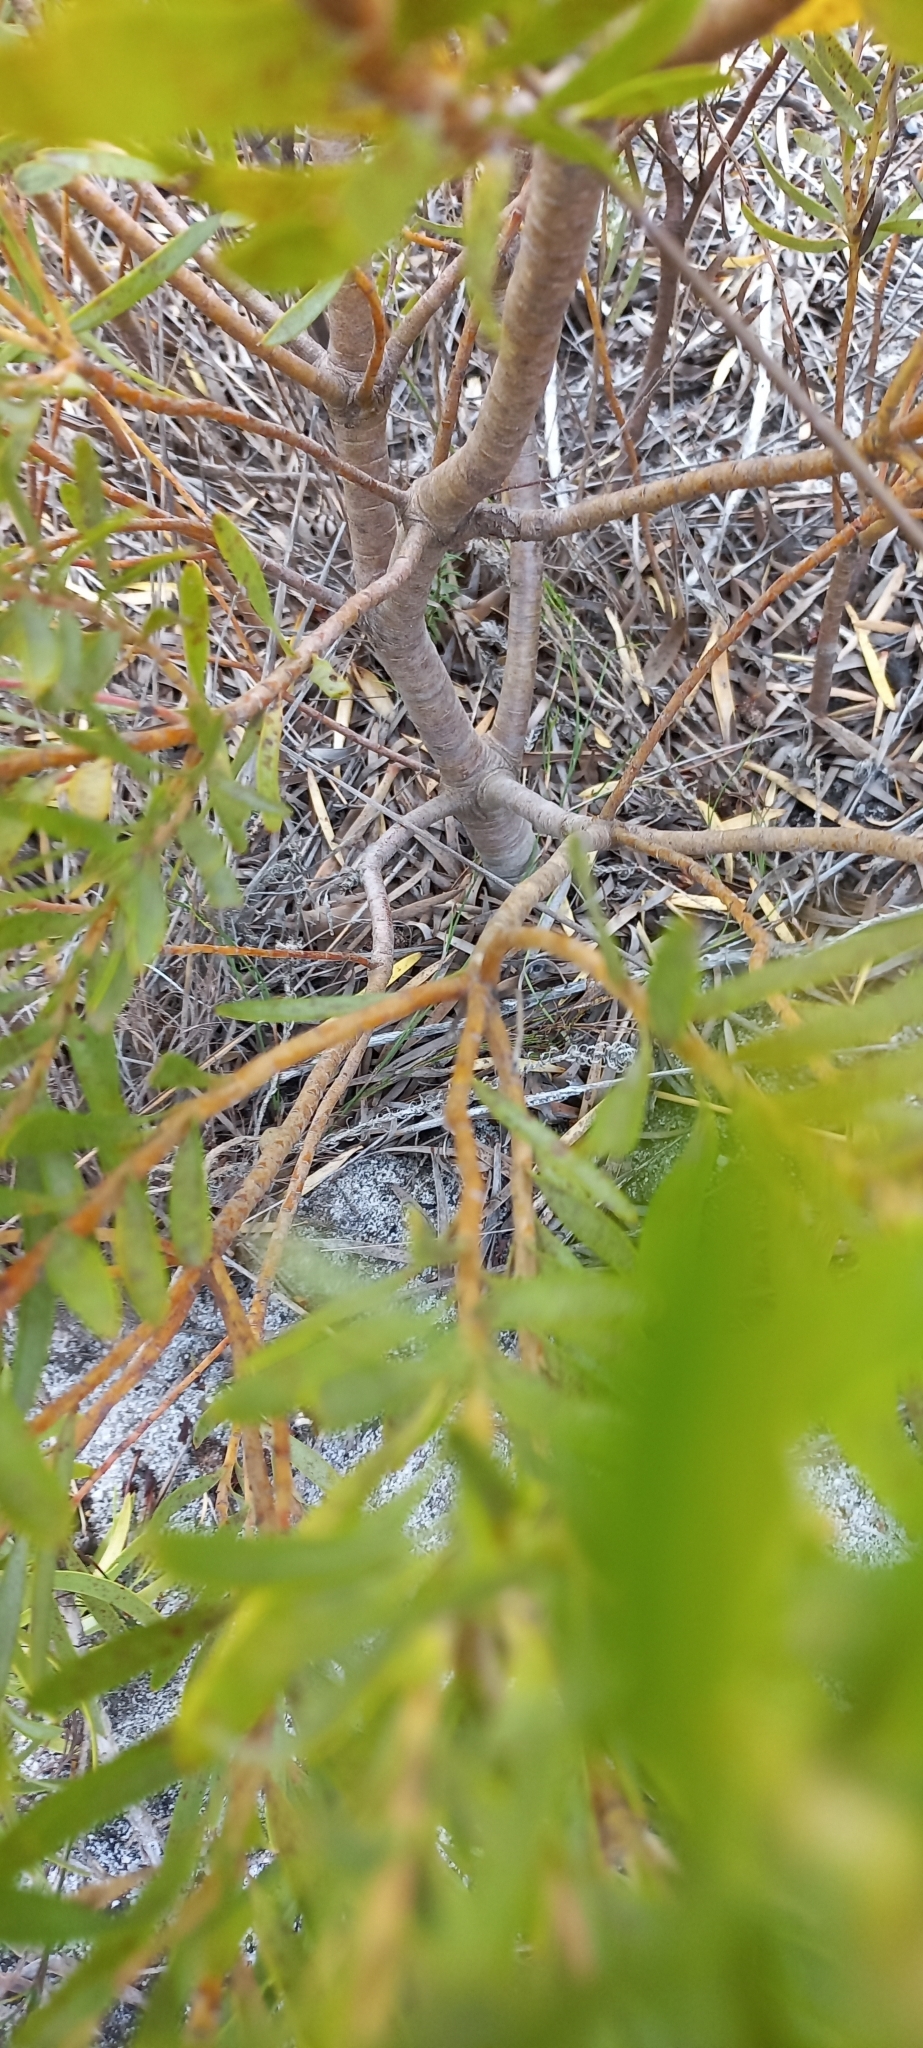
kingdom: Plantae
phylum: Tracheophyta
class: Magnoliopsida
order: Proteales
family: Proteaceae
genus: Leucadendron
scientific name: Leucadendron xanthoconus
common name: Sickle-leaf conebush
